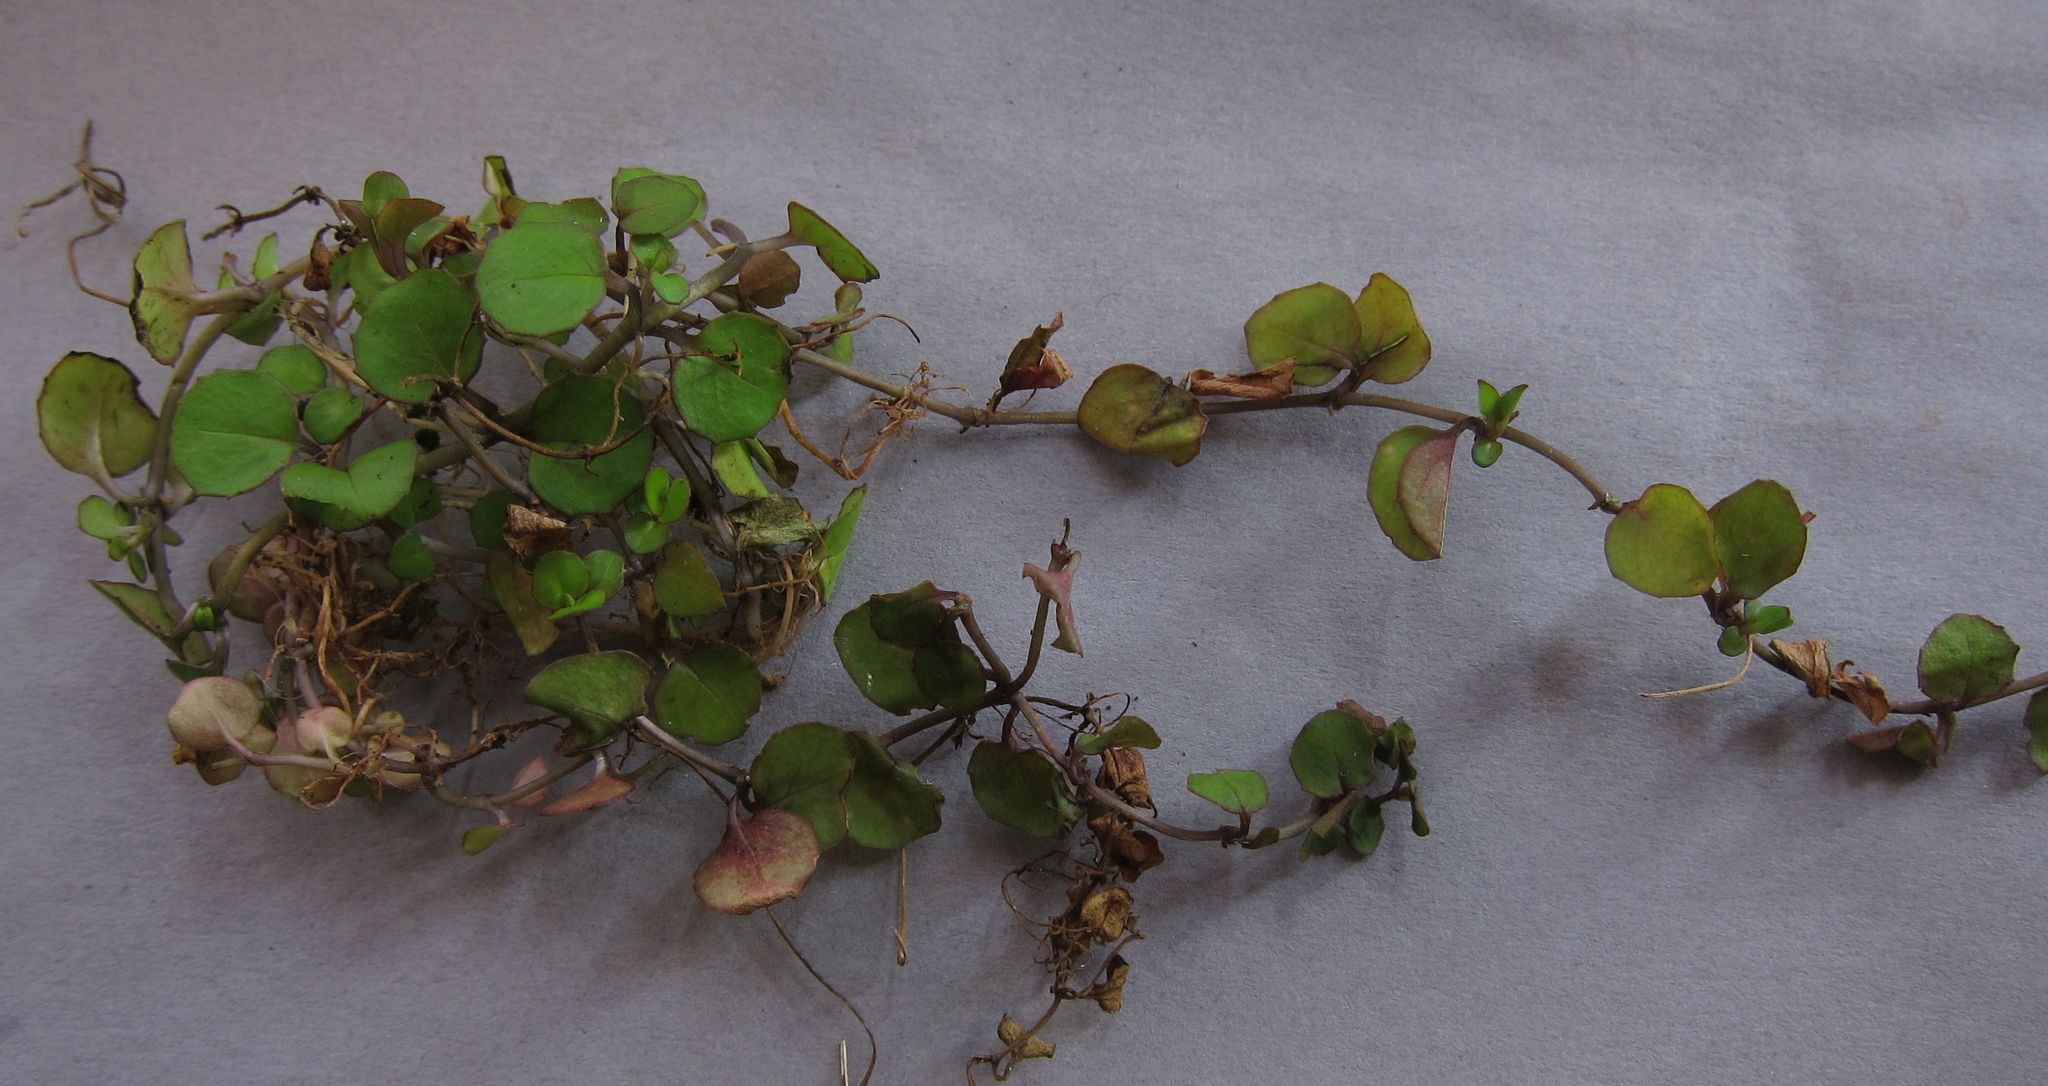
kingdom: Plantae
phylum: Tracheophyta
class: Magnoliopsida
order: Myrtales
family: Onagraceae
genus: Epilobium
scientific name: Epilobium nummularifolium
